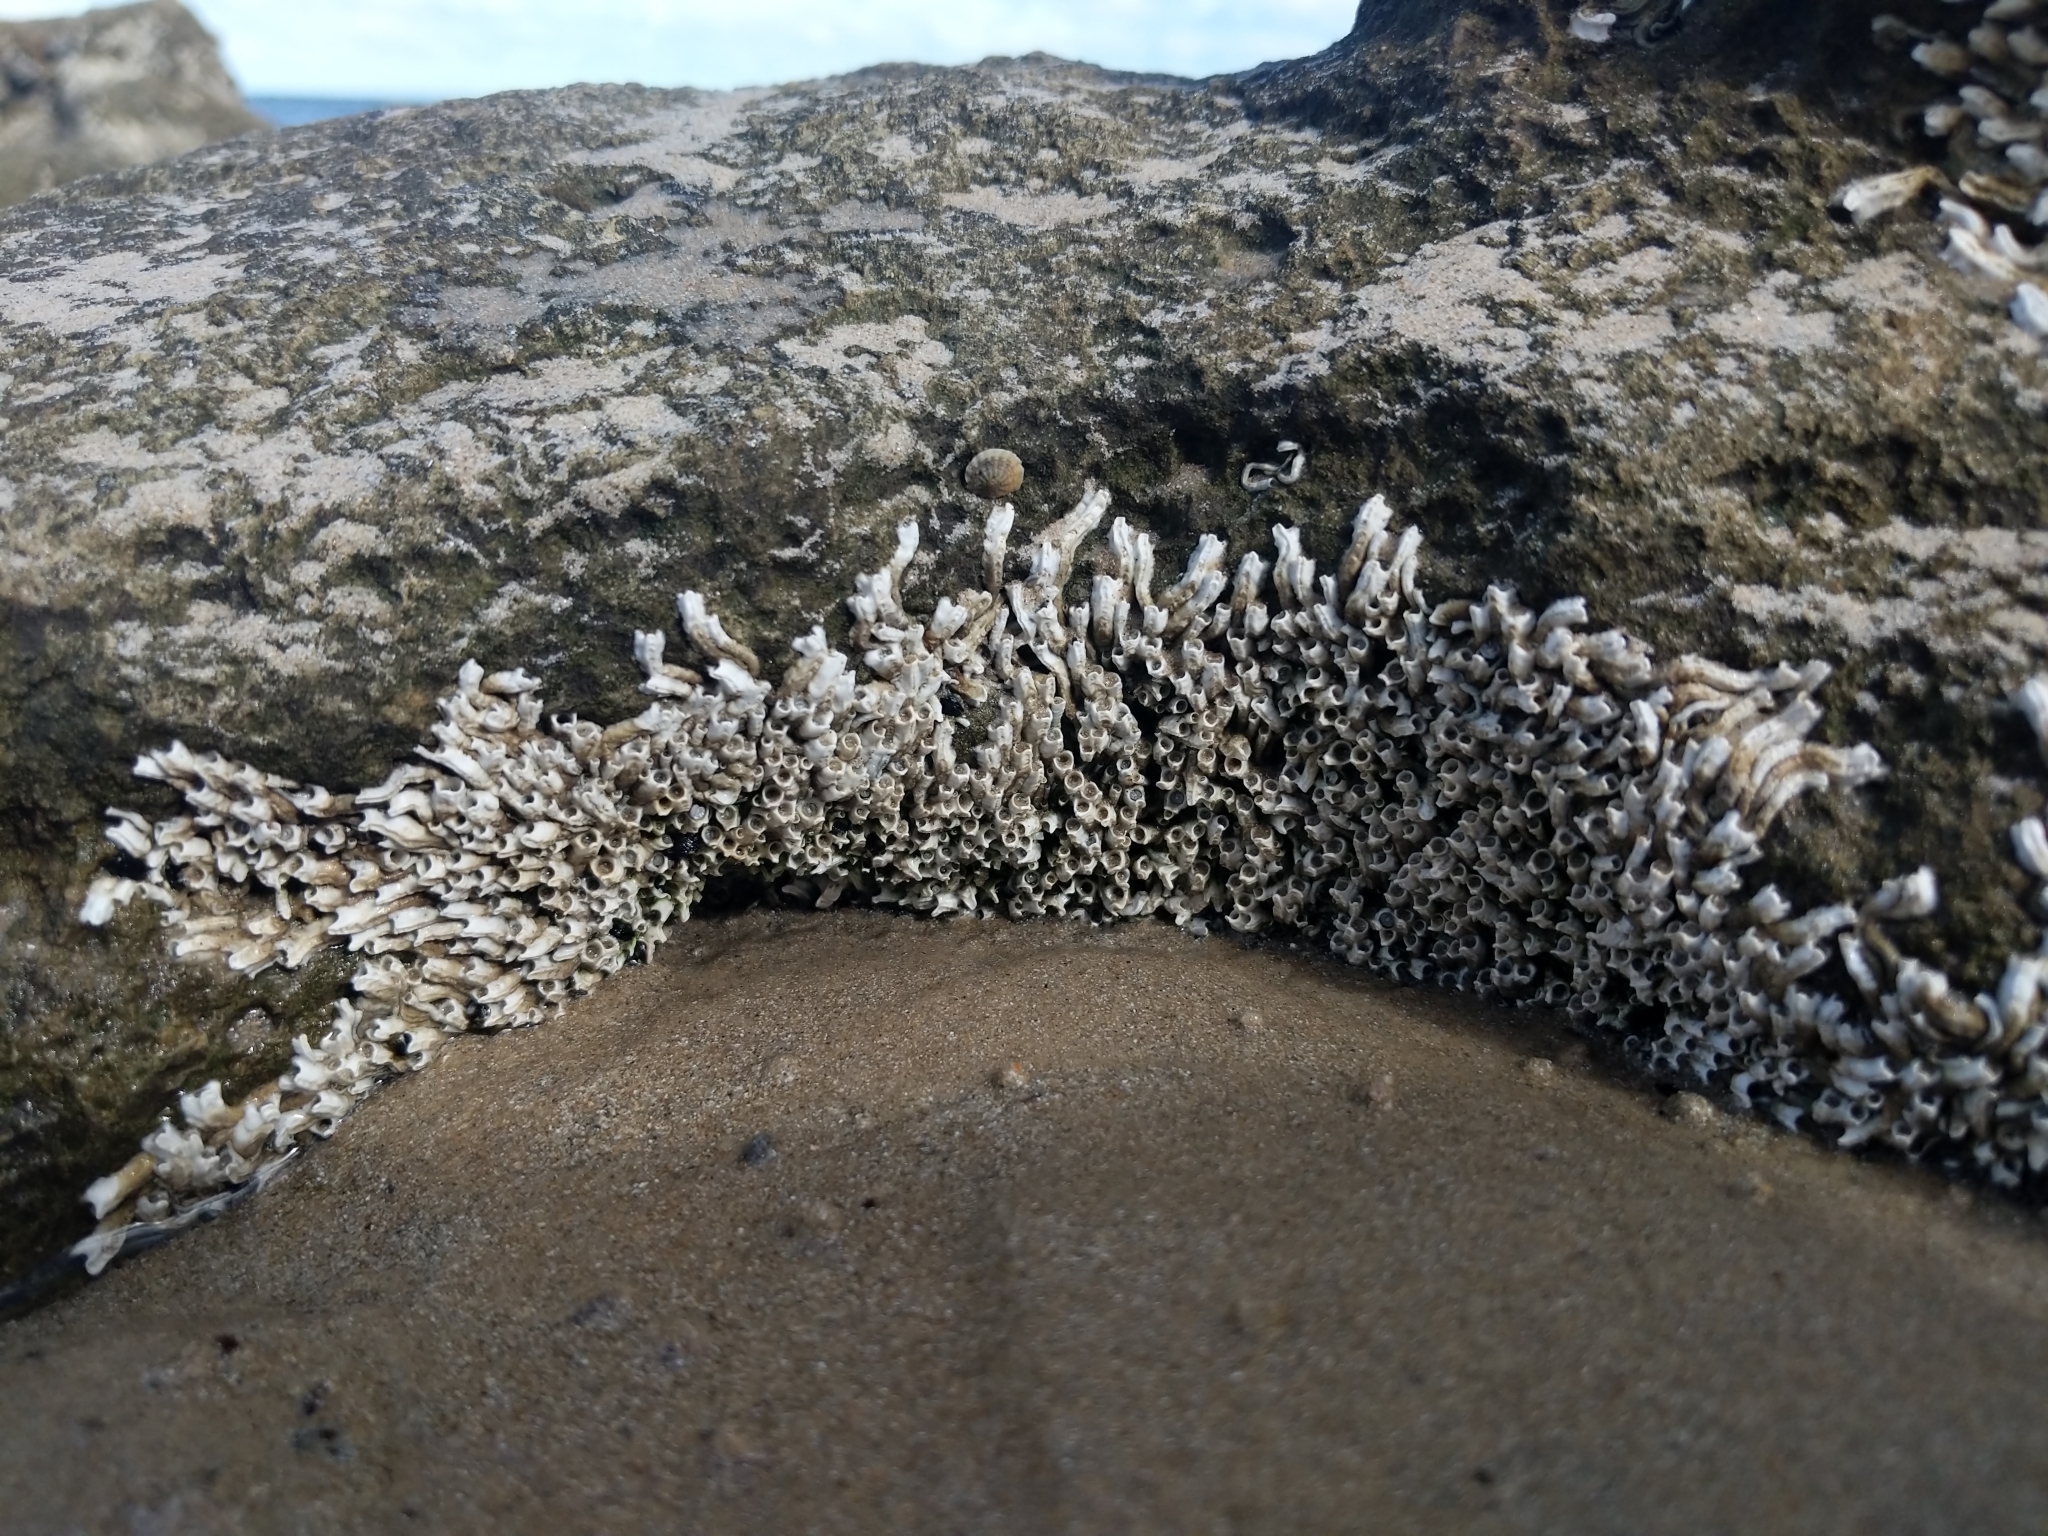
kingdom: Animalia
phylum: Annelida
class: Polychaeta
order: Sabellida
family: Serpulidae
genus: Galeolaria
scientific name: Galeolaria caespitosa
